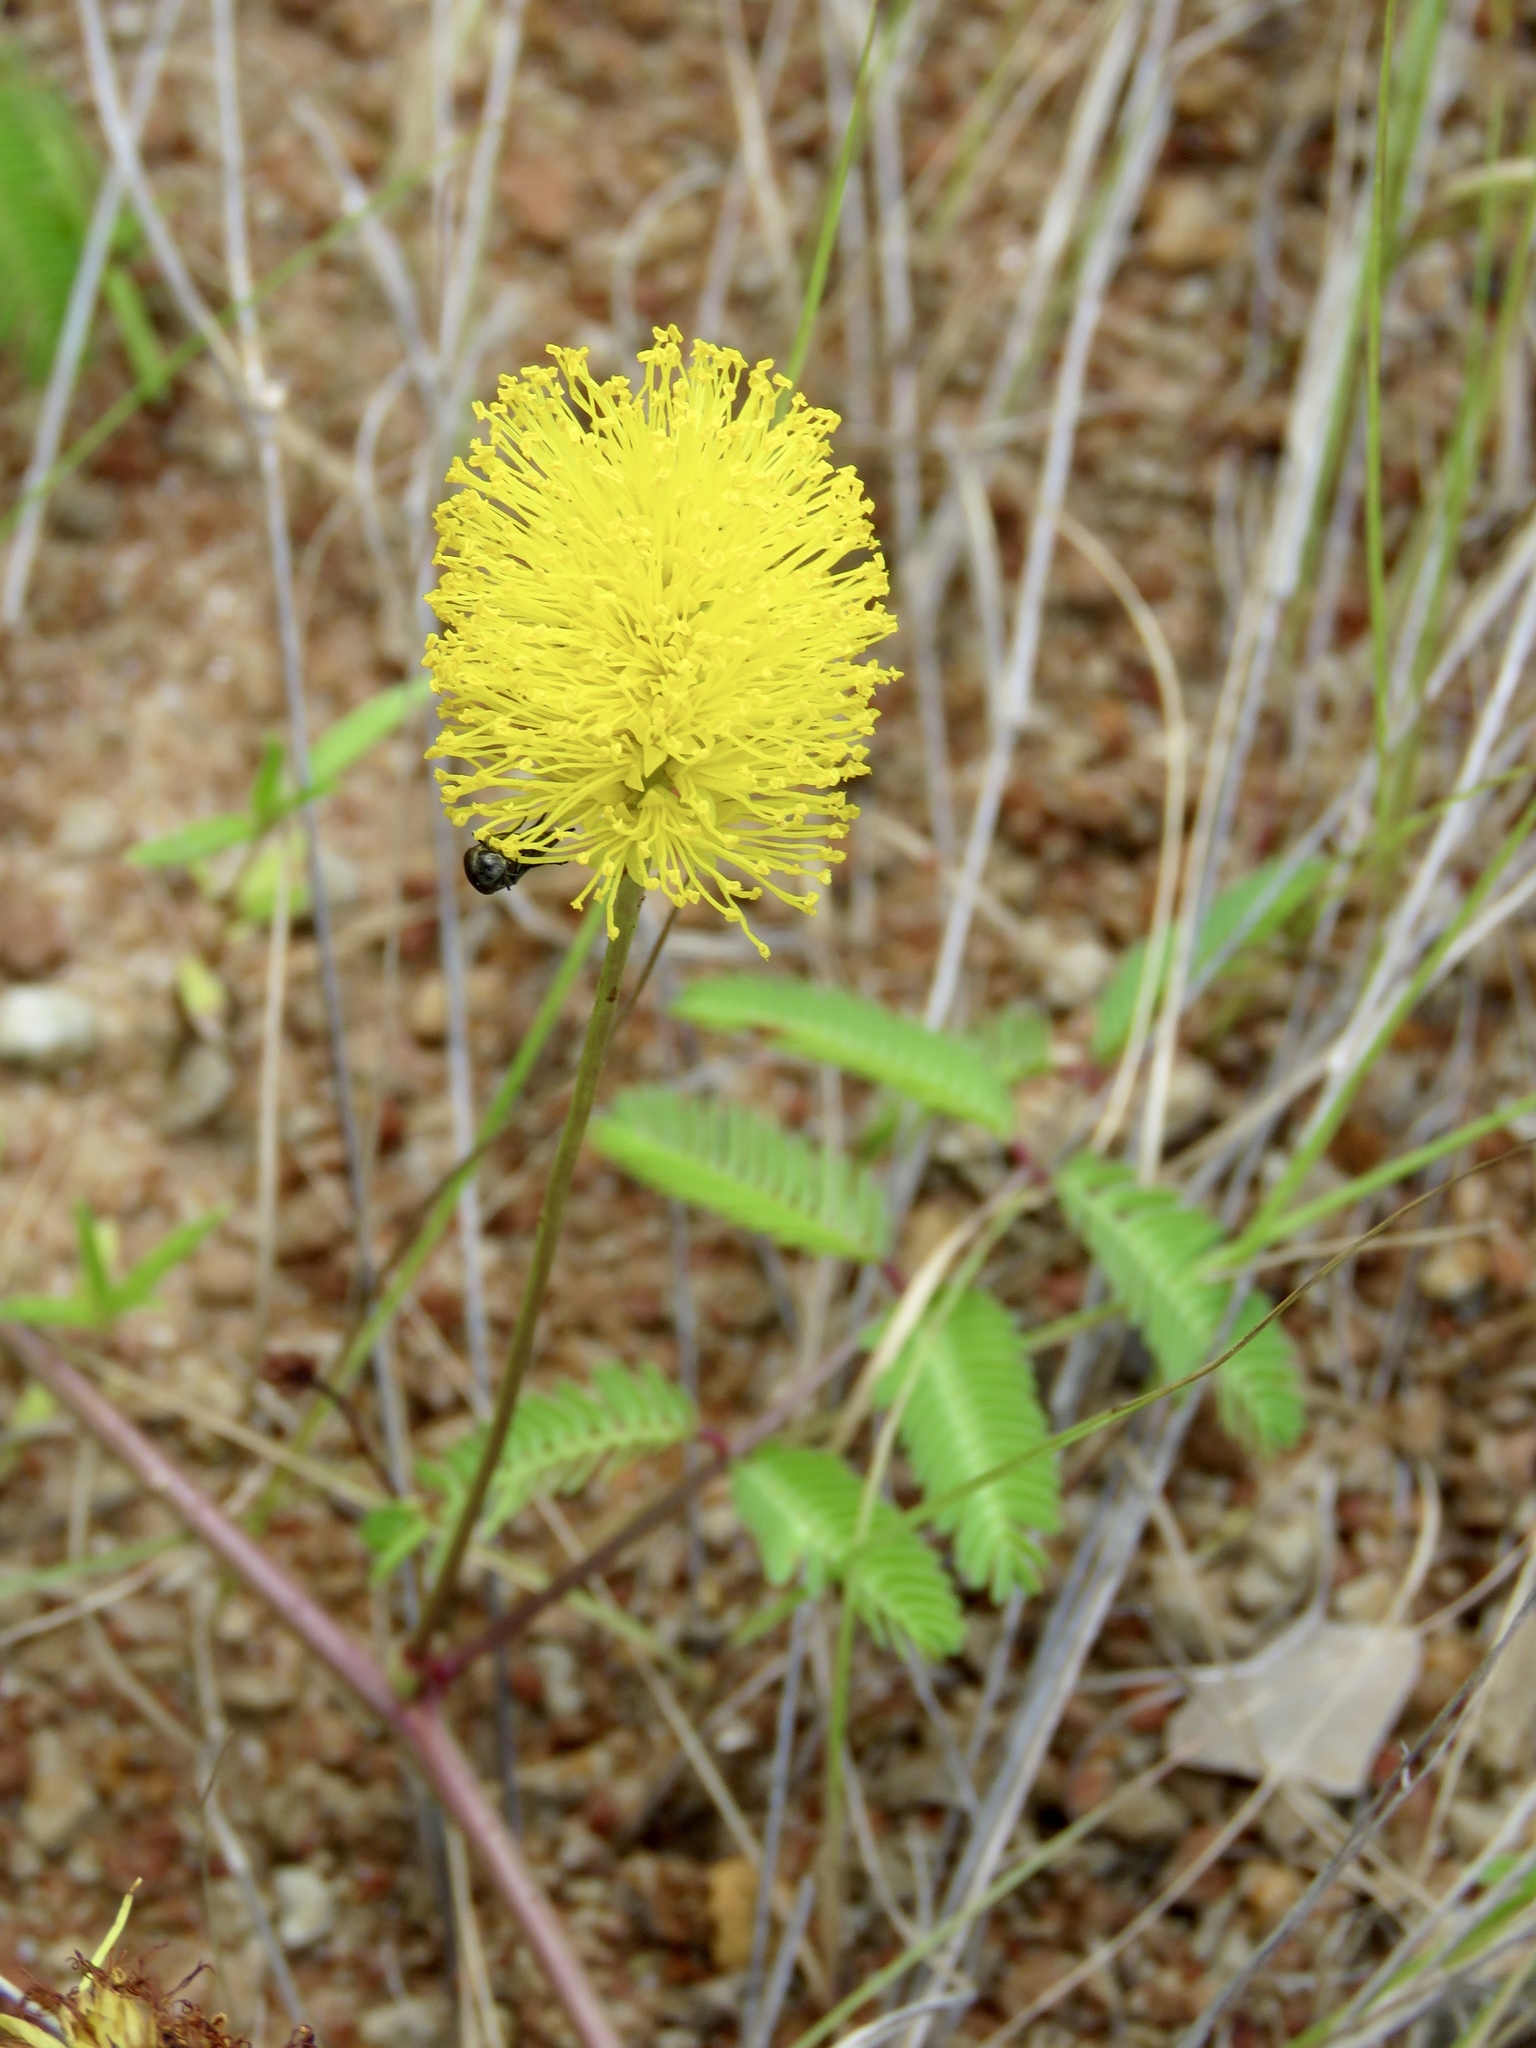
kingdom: Plantae
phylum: Tracheophyta
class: Magnoliopsida
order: Fabales
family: Fabaceae
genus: Neptunia
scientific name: Neptunia lutea
